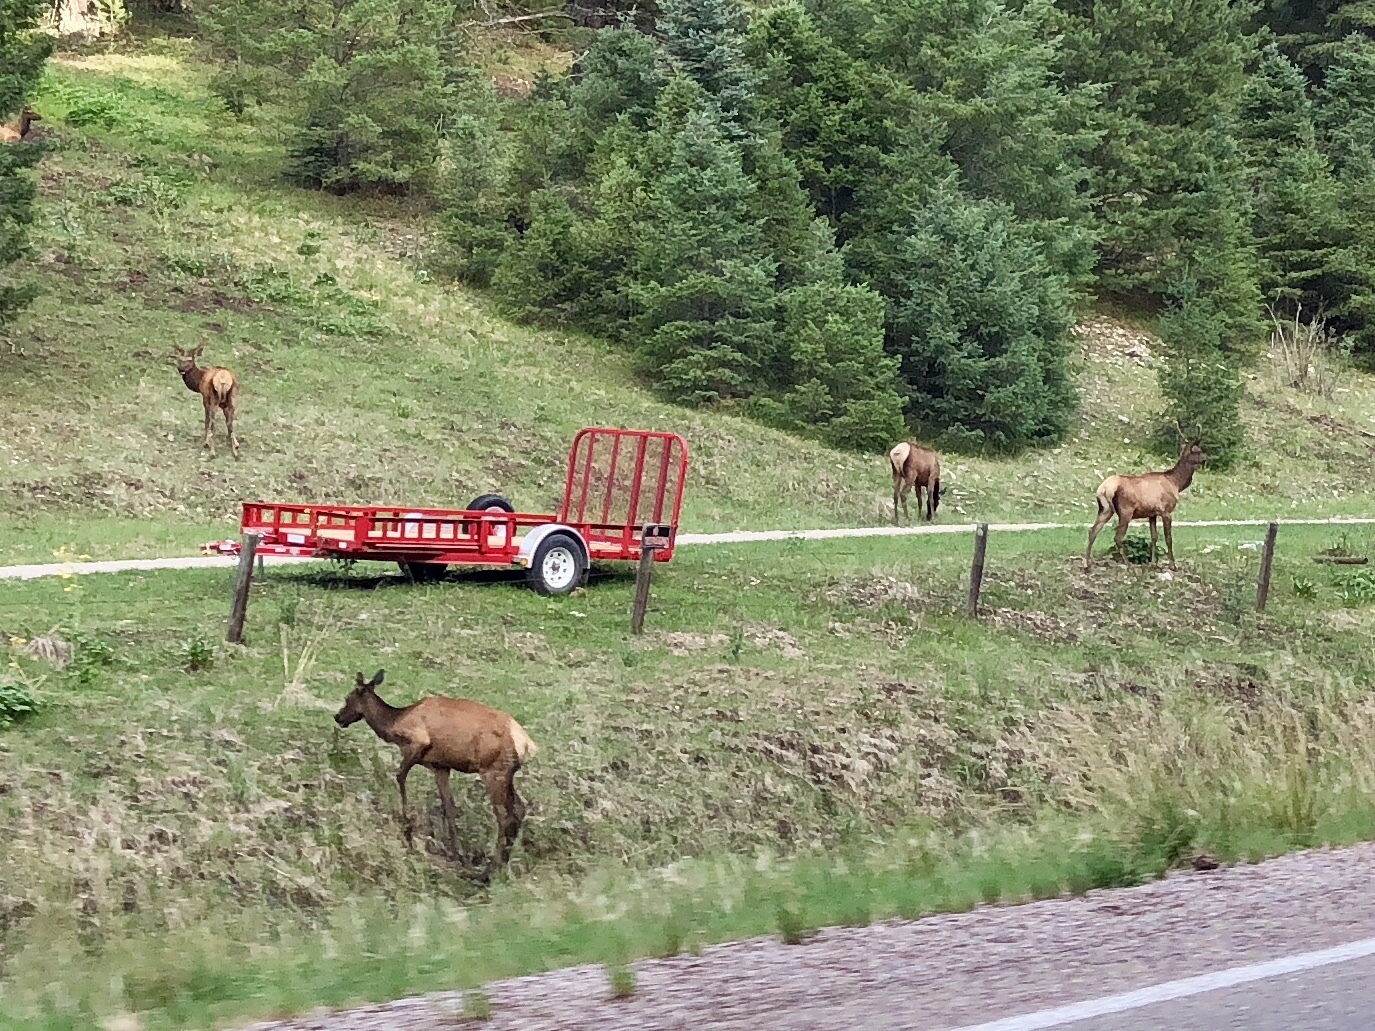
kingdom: Animalia
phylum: Chordata
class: Mammalia
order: Artiodactyla
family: Cervidae
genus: Cervus
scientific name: Cervus elaphus
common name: Red deer
